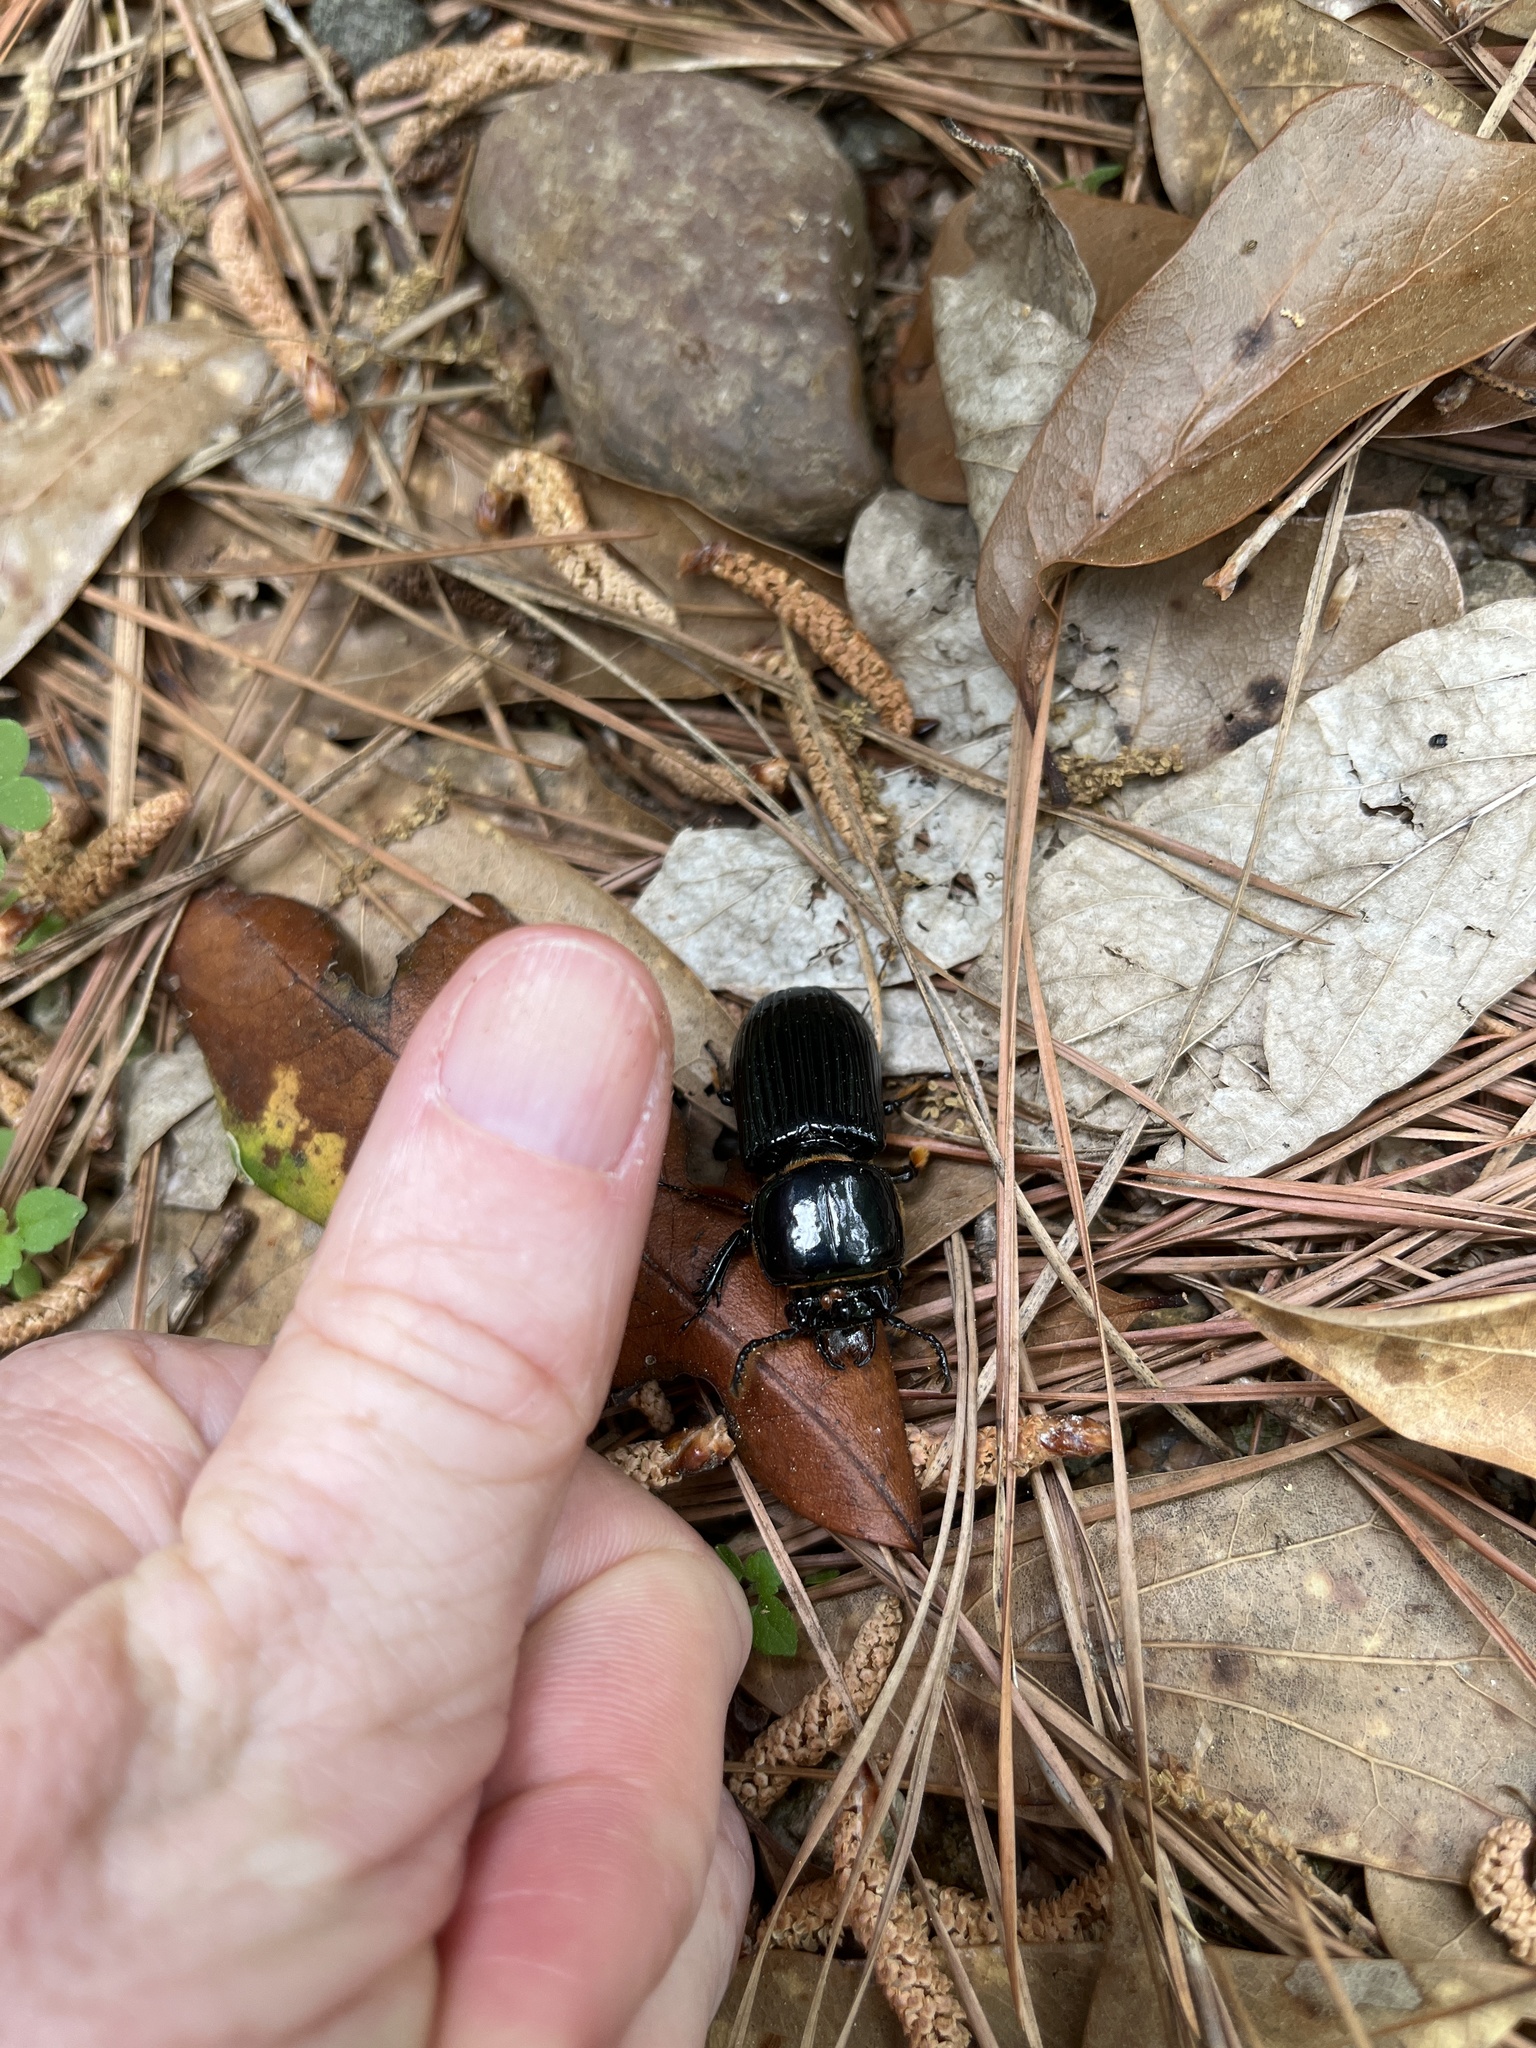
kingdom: Animalia
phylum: Arthropoda
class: Insecta
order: Coleoptera
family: Passalidae
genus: Odontotaenius
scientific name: Odontotaenius disjunctus
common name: Patent leather beetle
